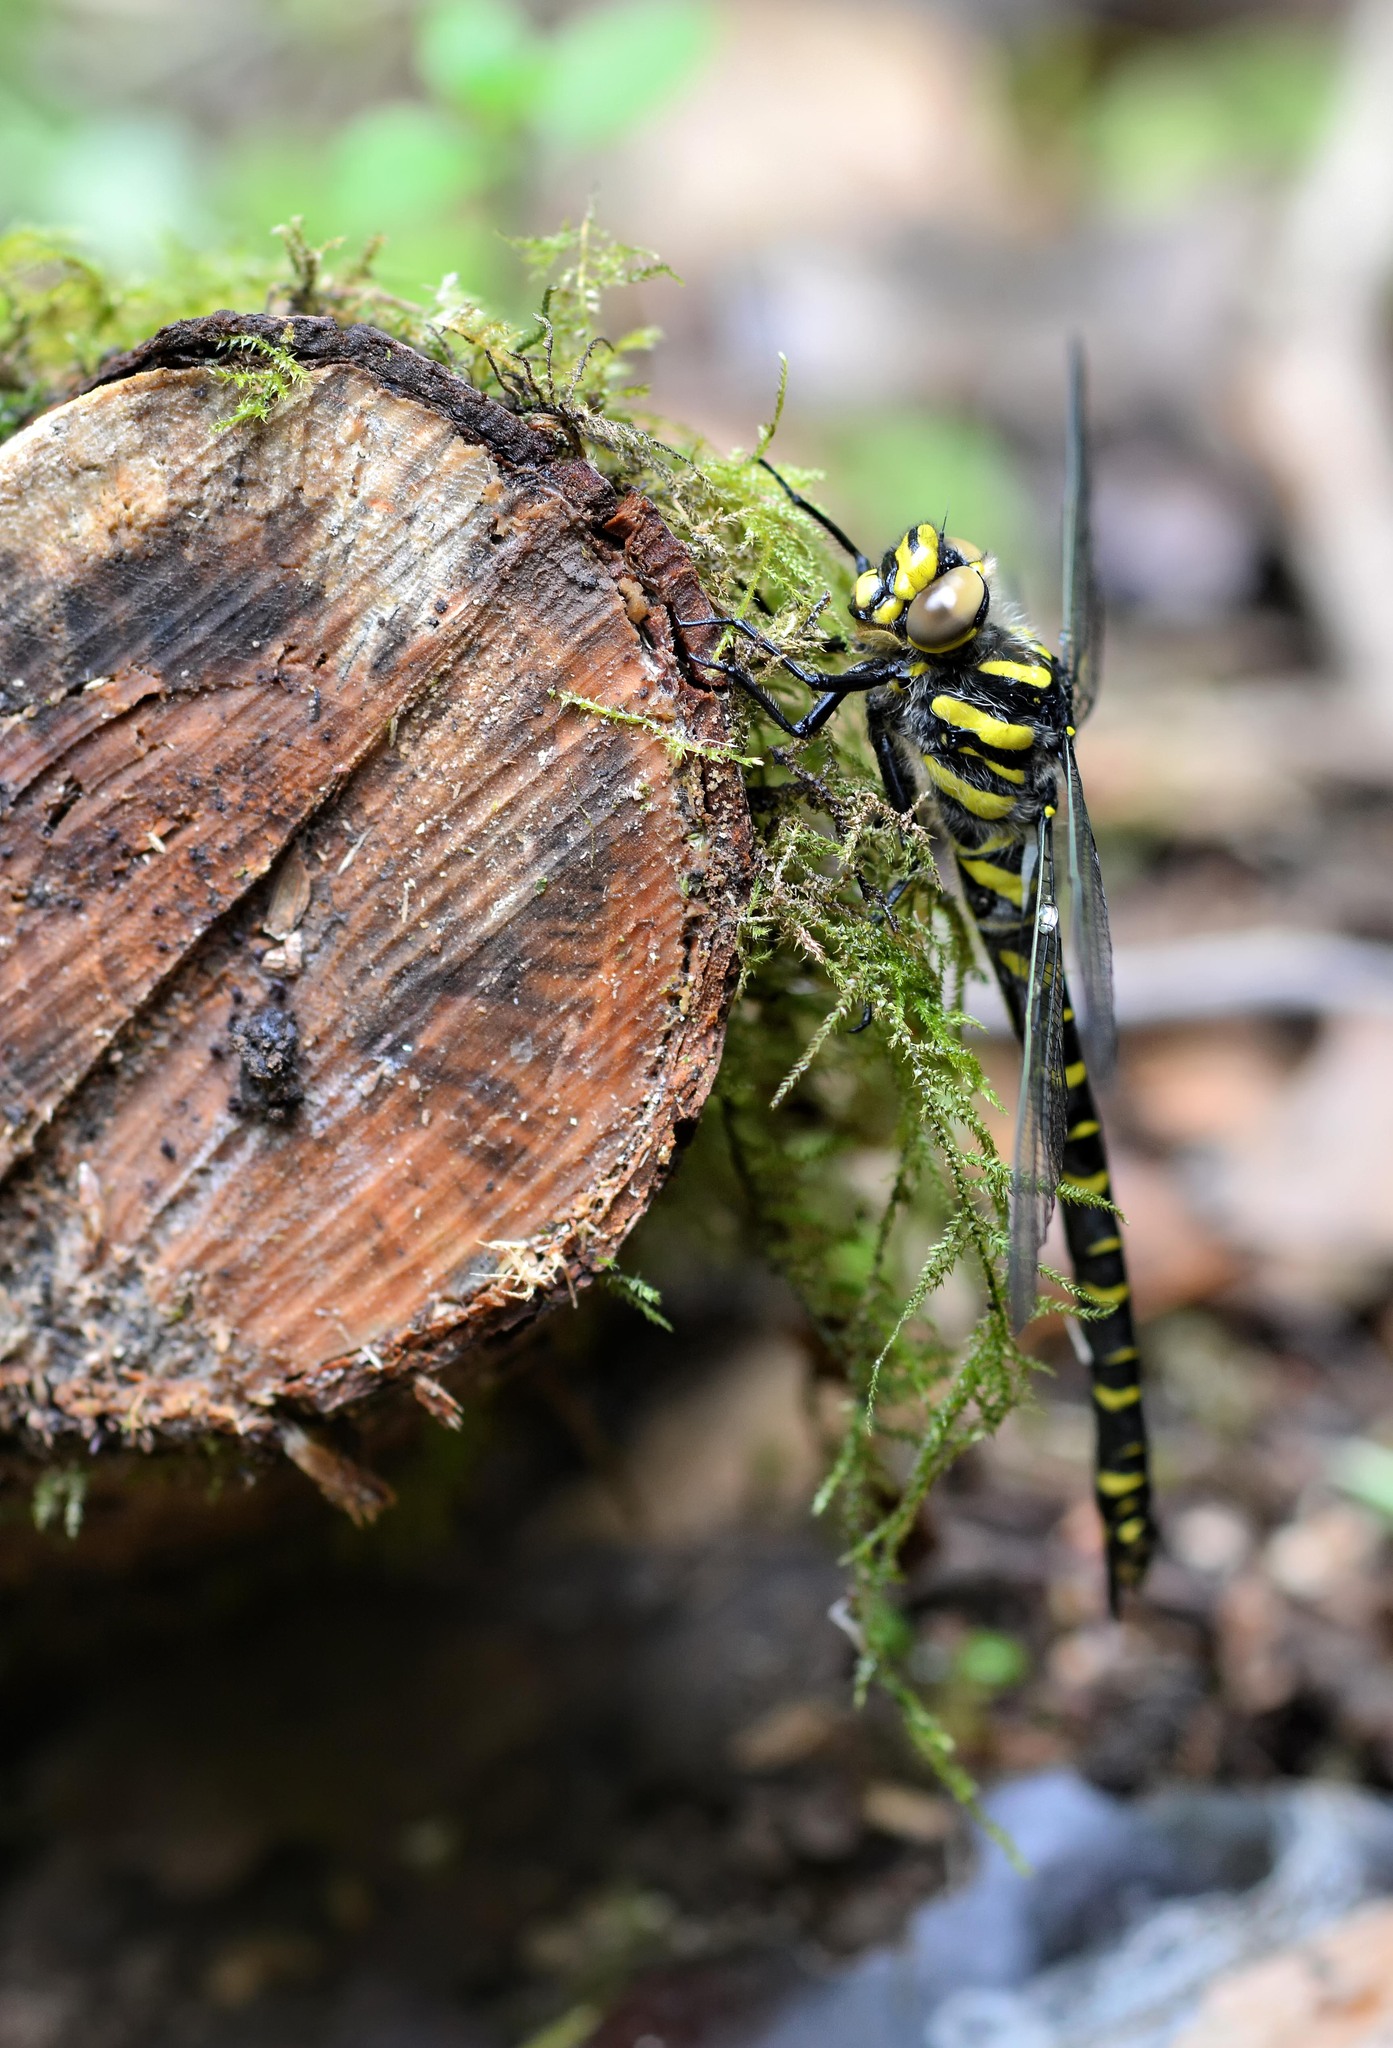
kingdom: Animalia
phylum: Arthropoda
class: Insecta
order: Odonata
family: Cordulegastridae
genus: Cordulegaster
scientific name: Cordulegaster boltonii
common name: Golden-ringed dragonfly
